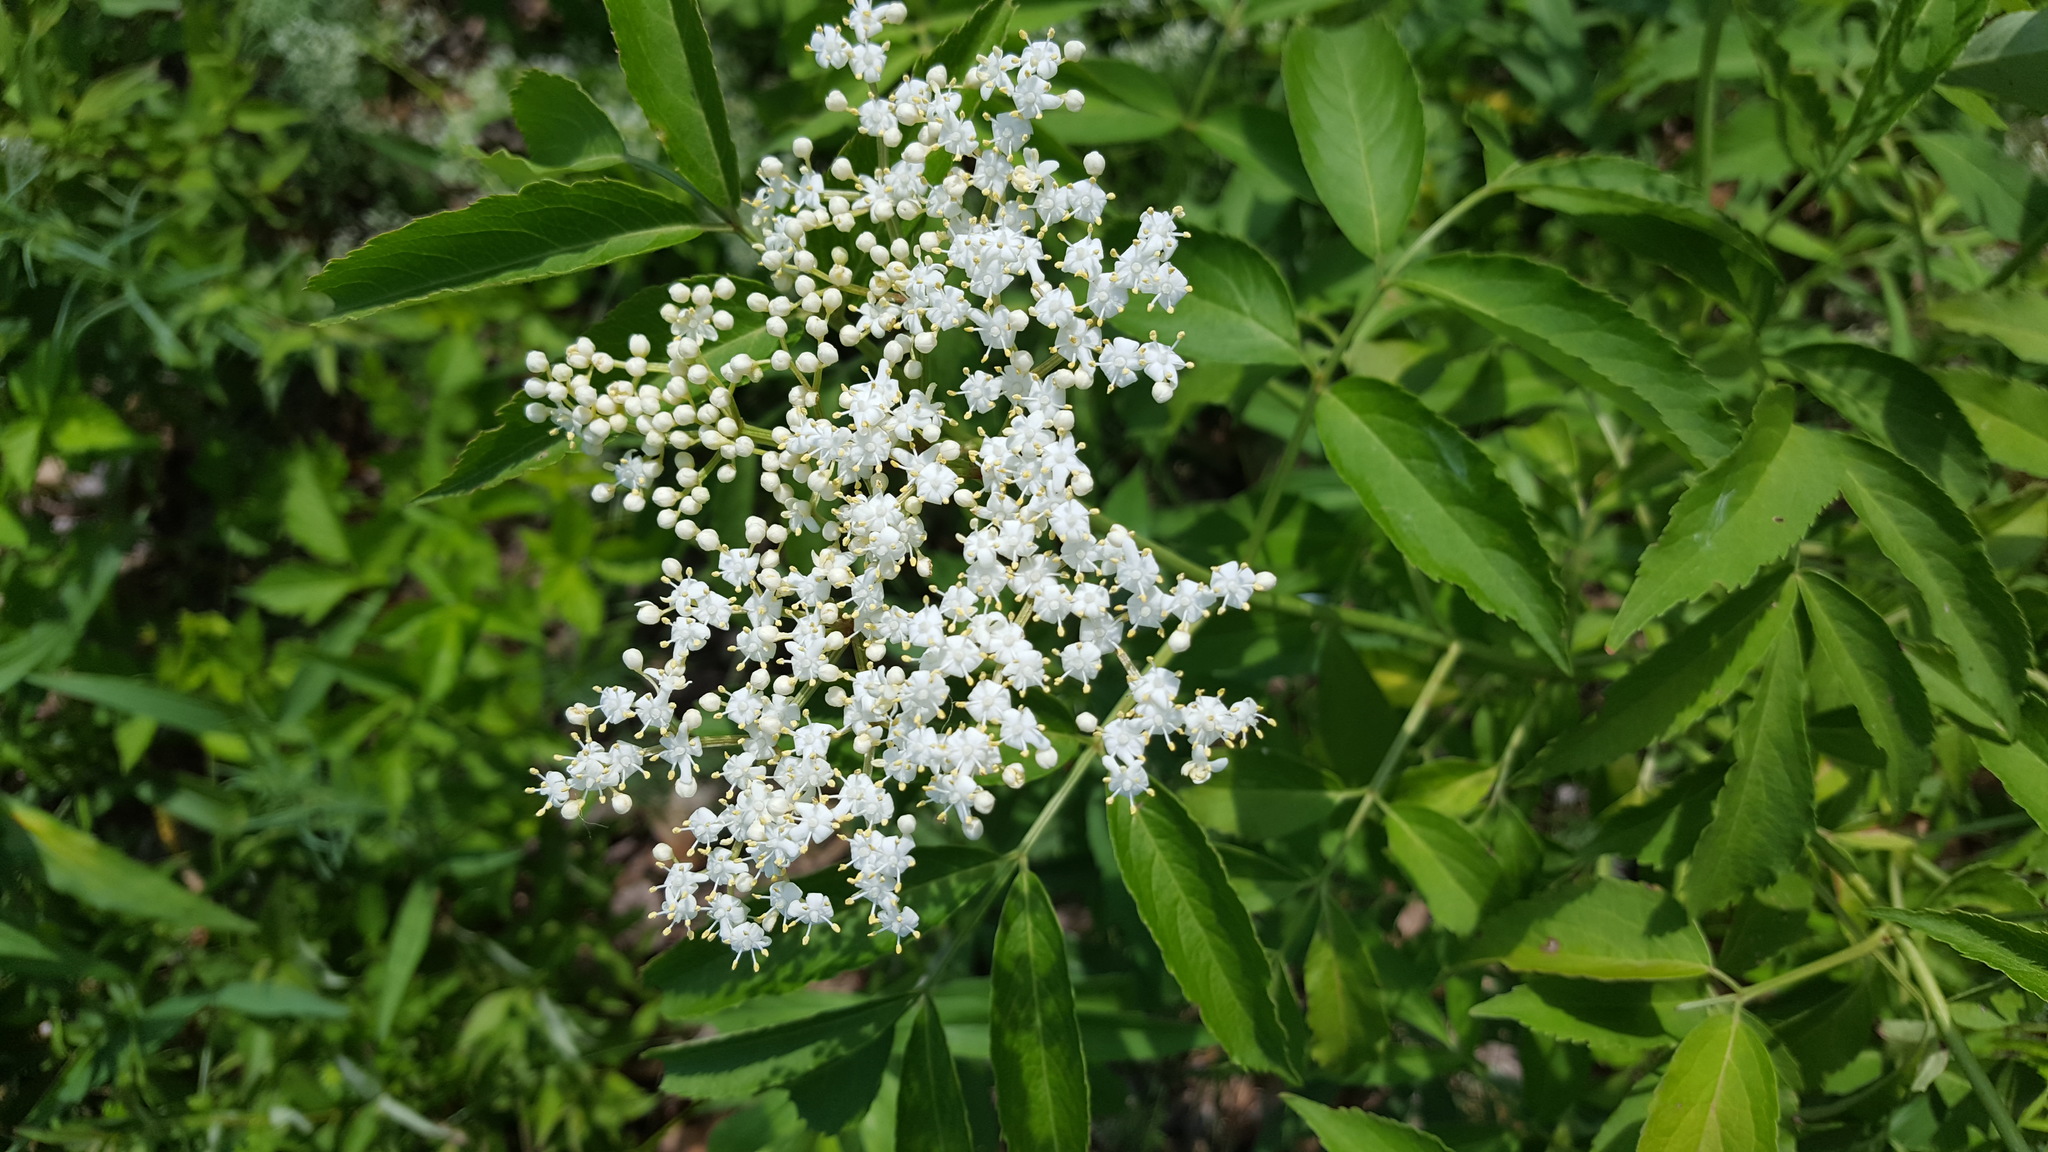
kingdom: Plantae
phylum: Tracheophyta
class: Magnoliopsida
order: Dipsacales
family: Viburnaceae
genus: Sambucus
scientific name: Sambucus canadensis
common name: American elder
